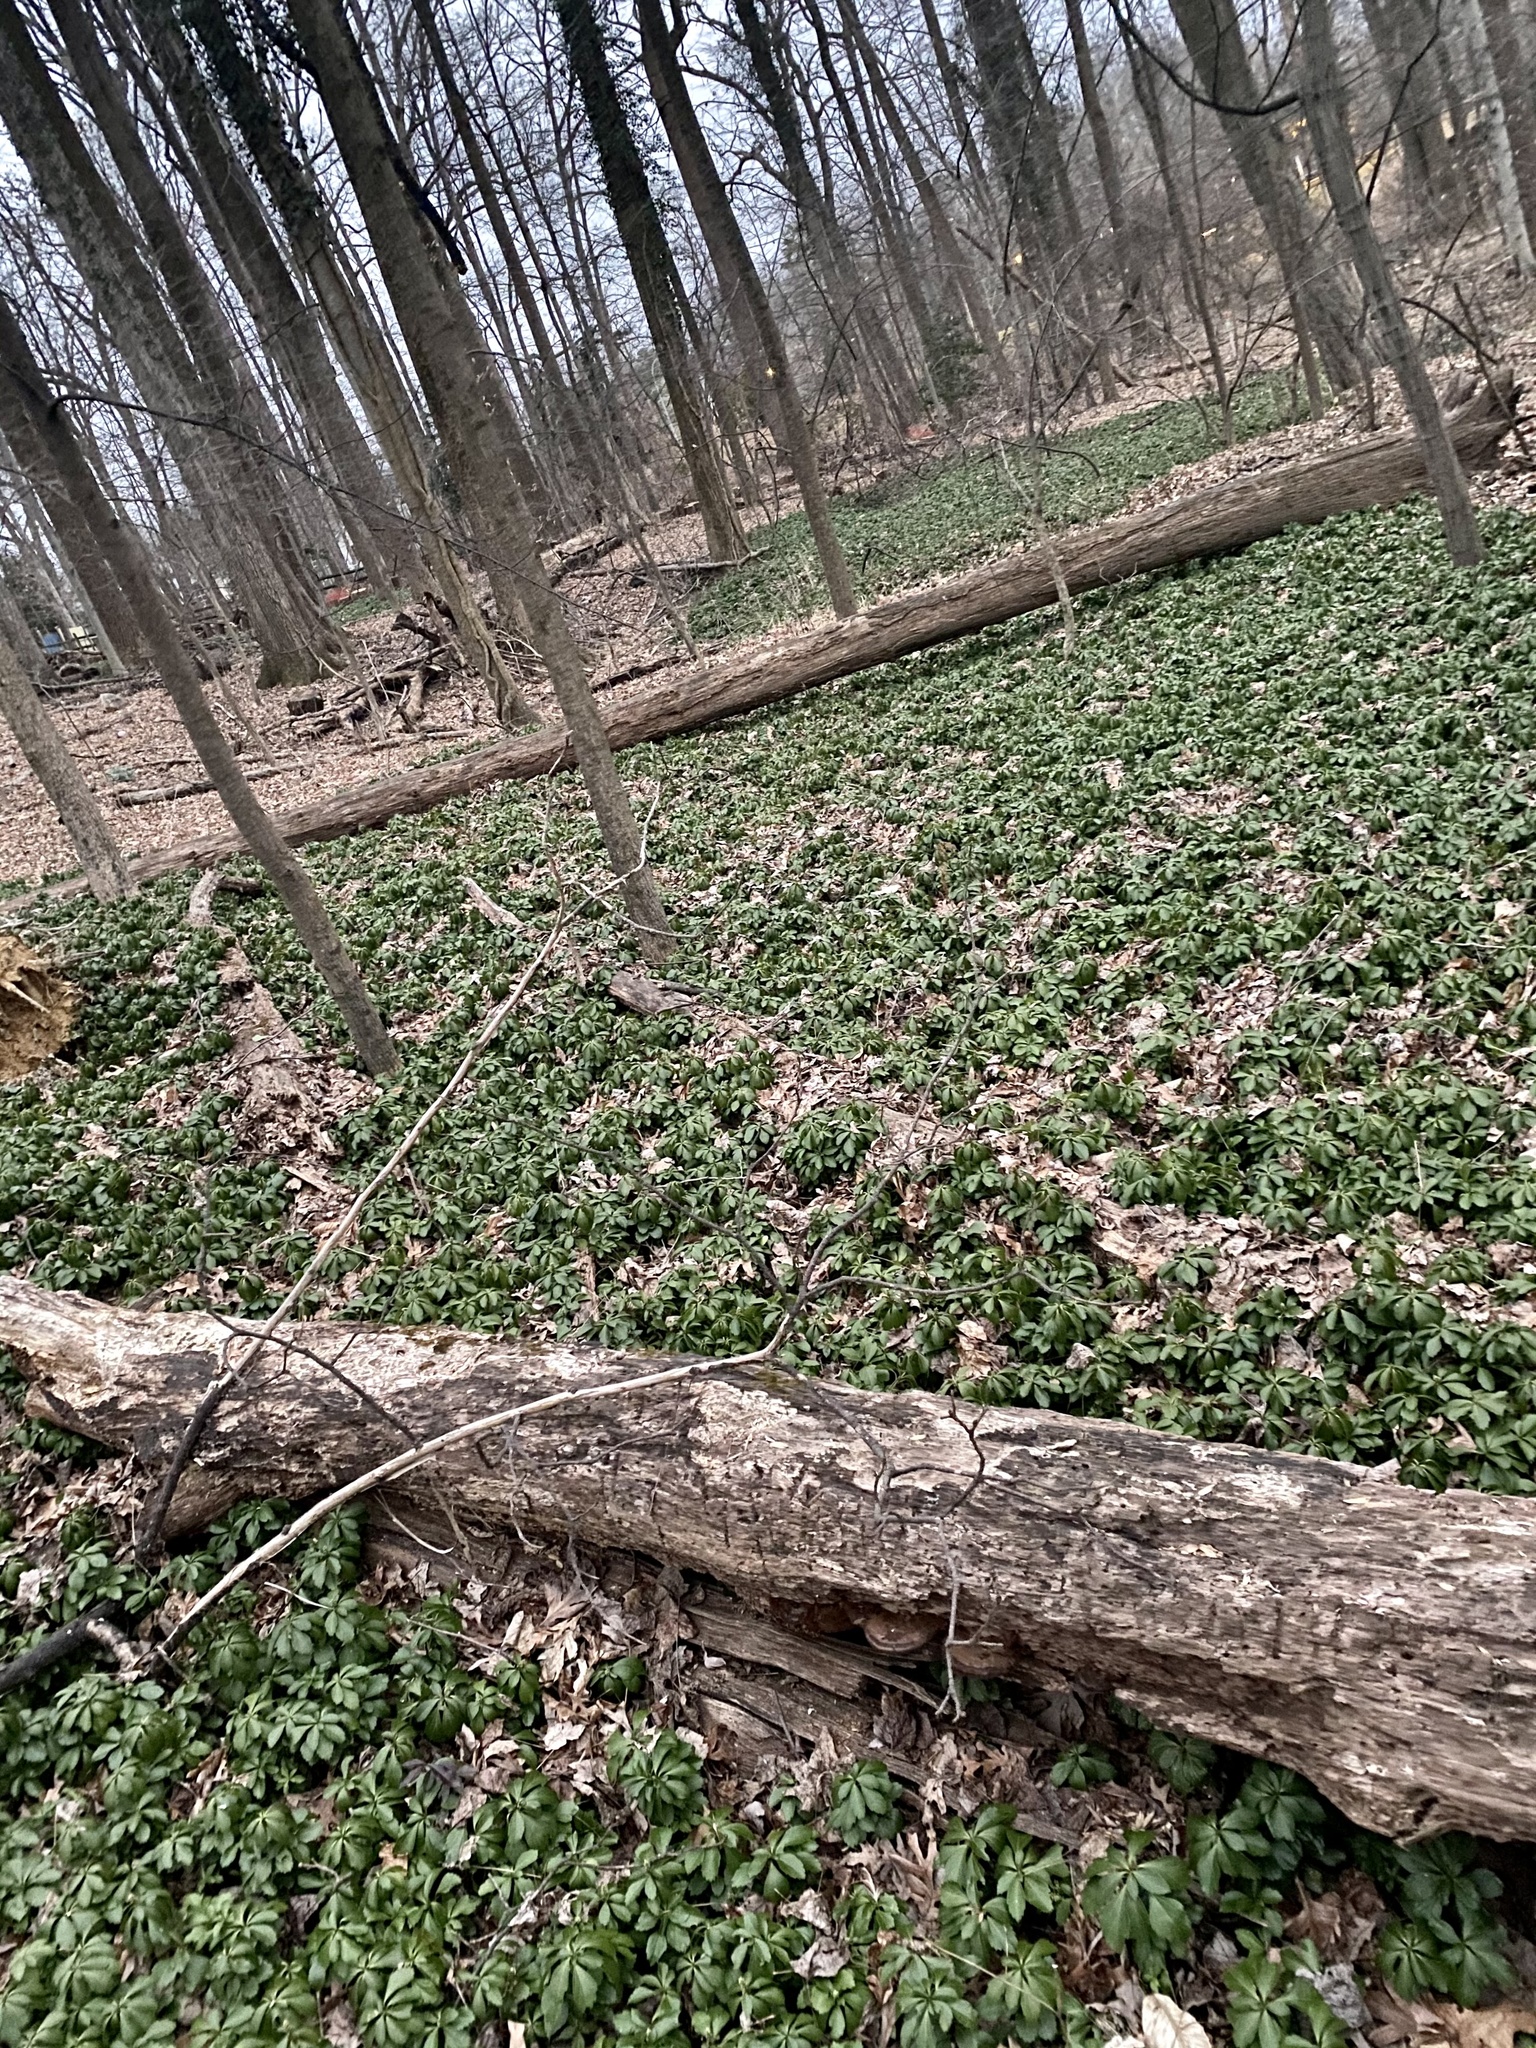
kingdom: Plantae
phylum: Tracheophyta
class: Magnoliopsida
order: Buxales
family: Buxaceae
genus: Pachysandra
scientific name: Pachysandra terminalis
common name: Japanese pachysandra
